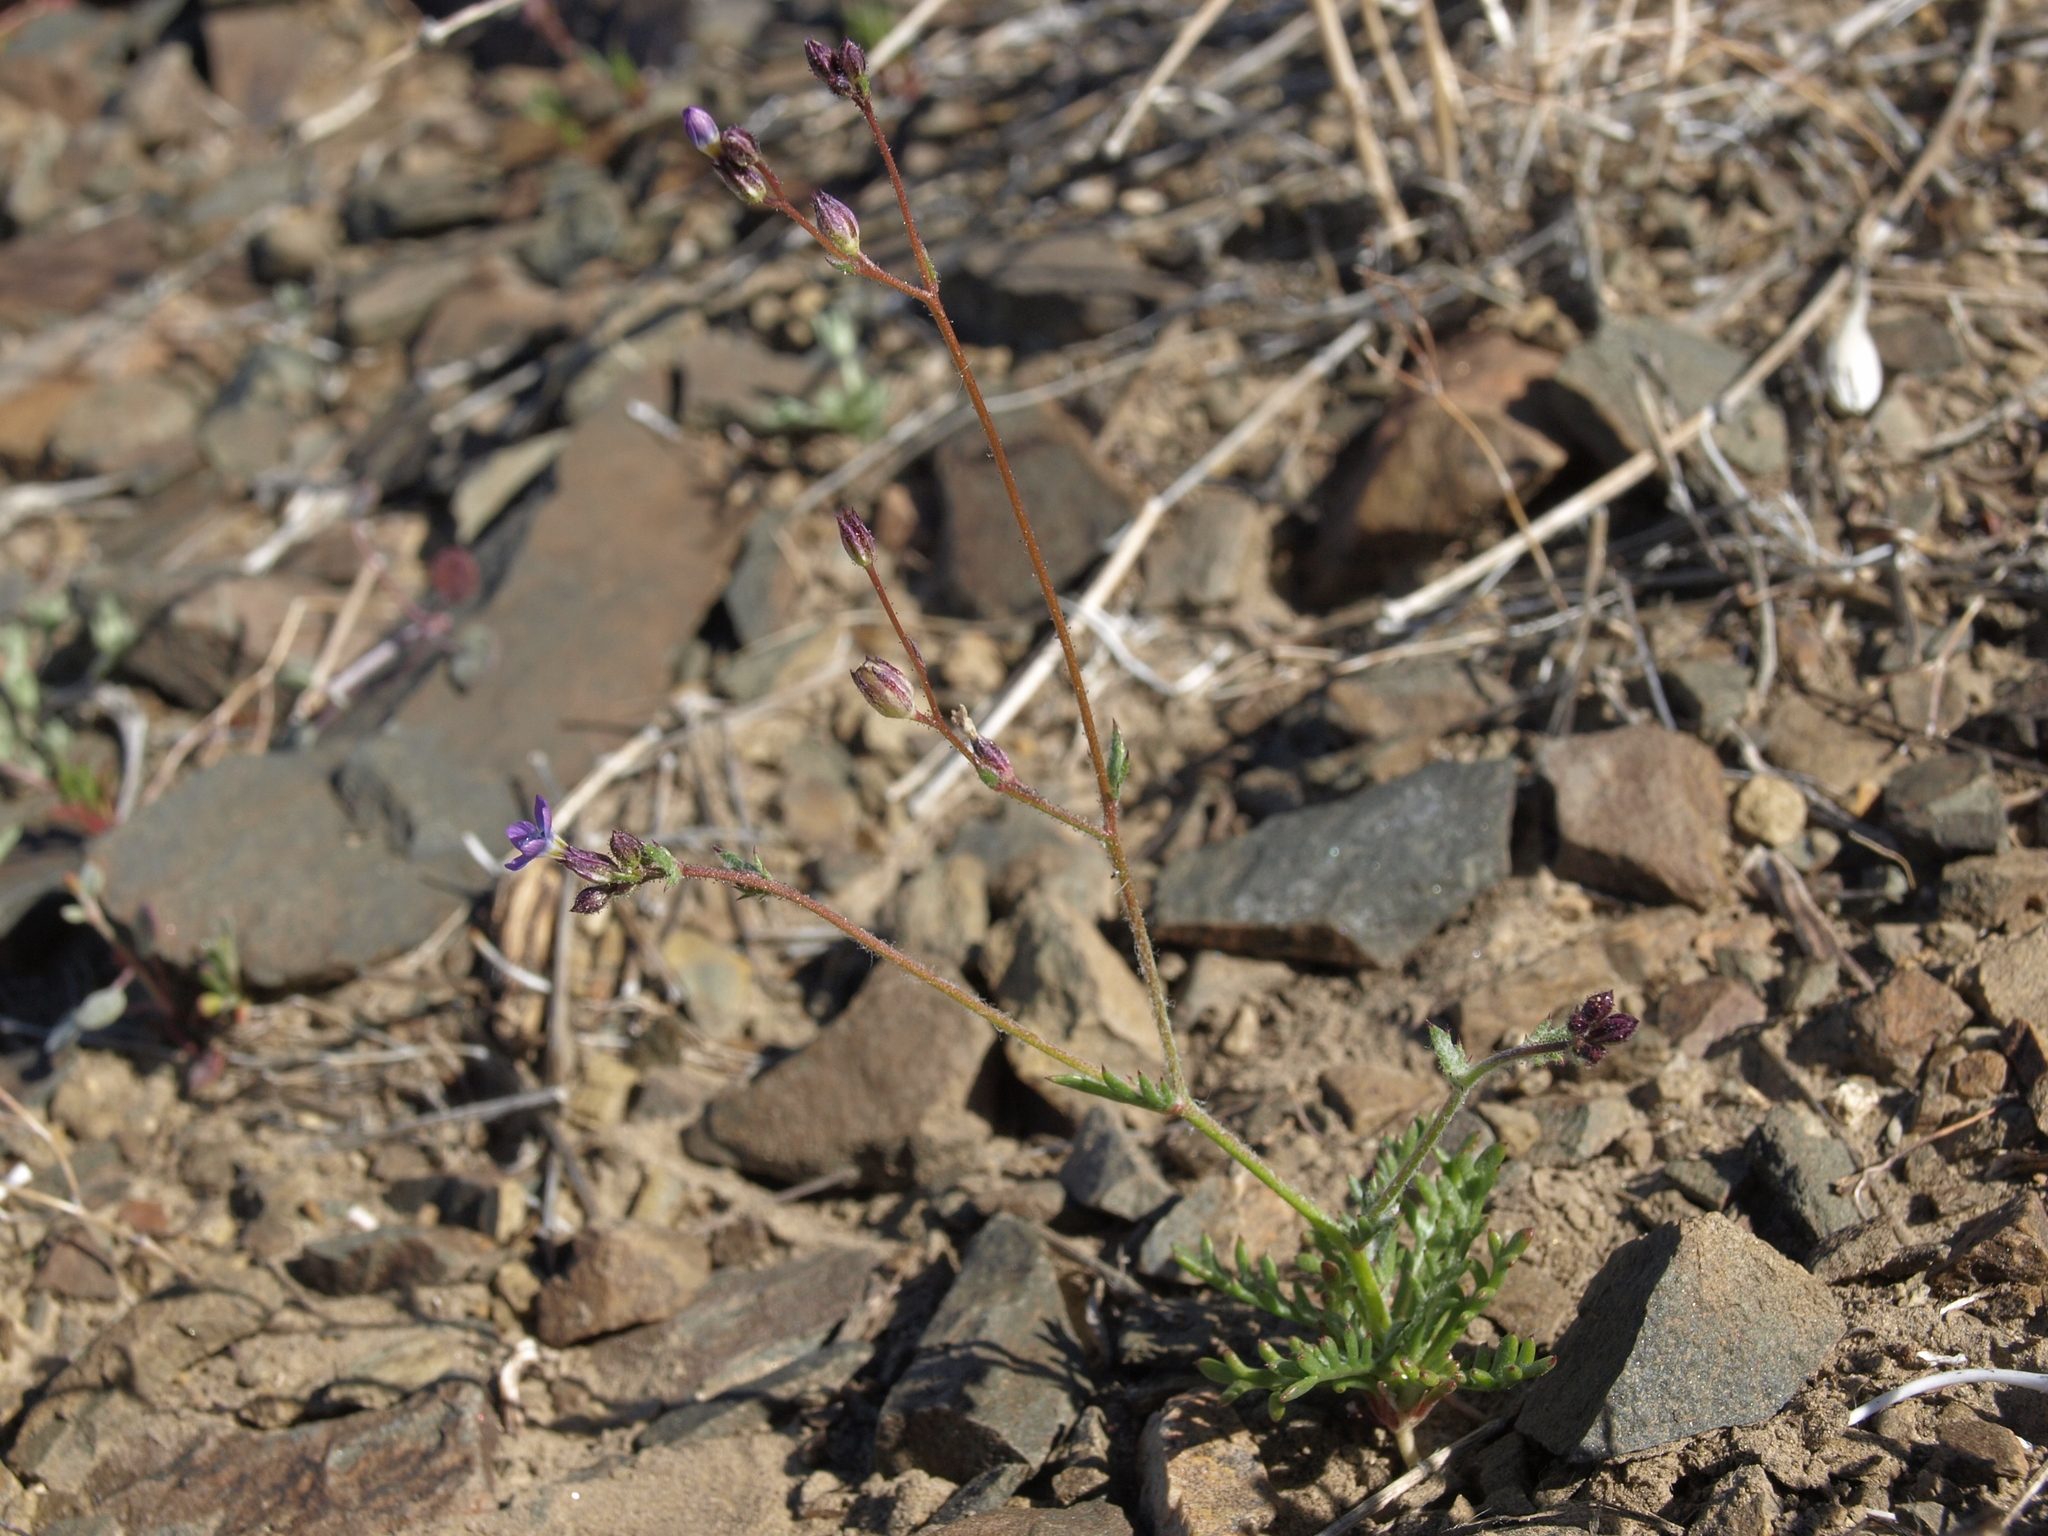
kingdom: Plantae
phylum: Tracheophyta
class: Magnoliopsida
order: Ericales
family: Polemoniaceae
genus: Gilia
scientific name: Gilia transmontana
